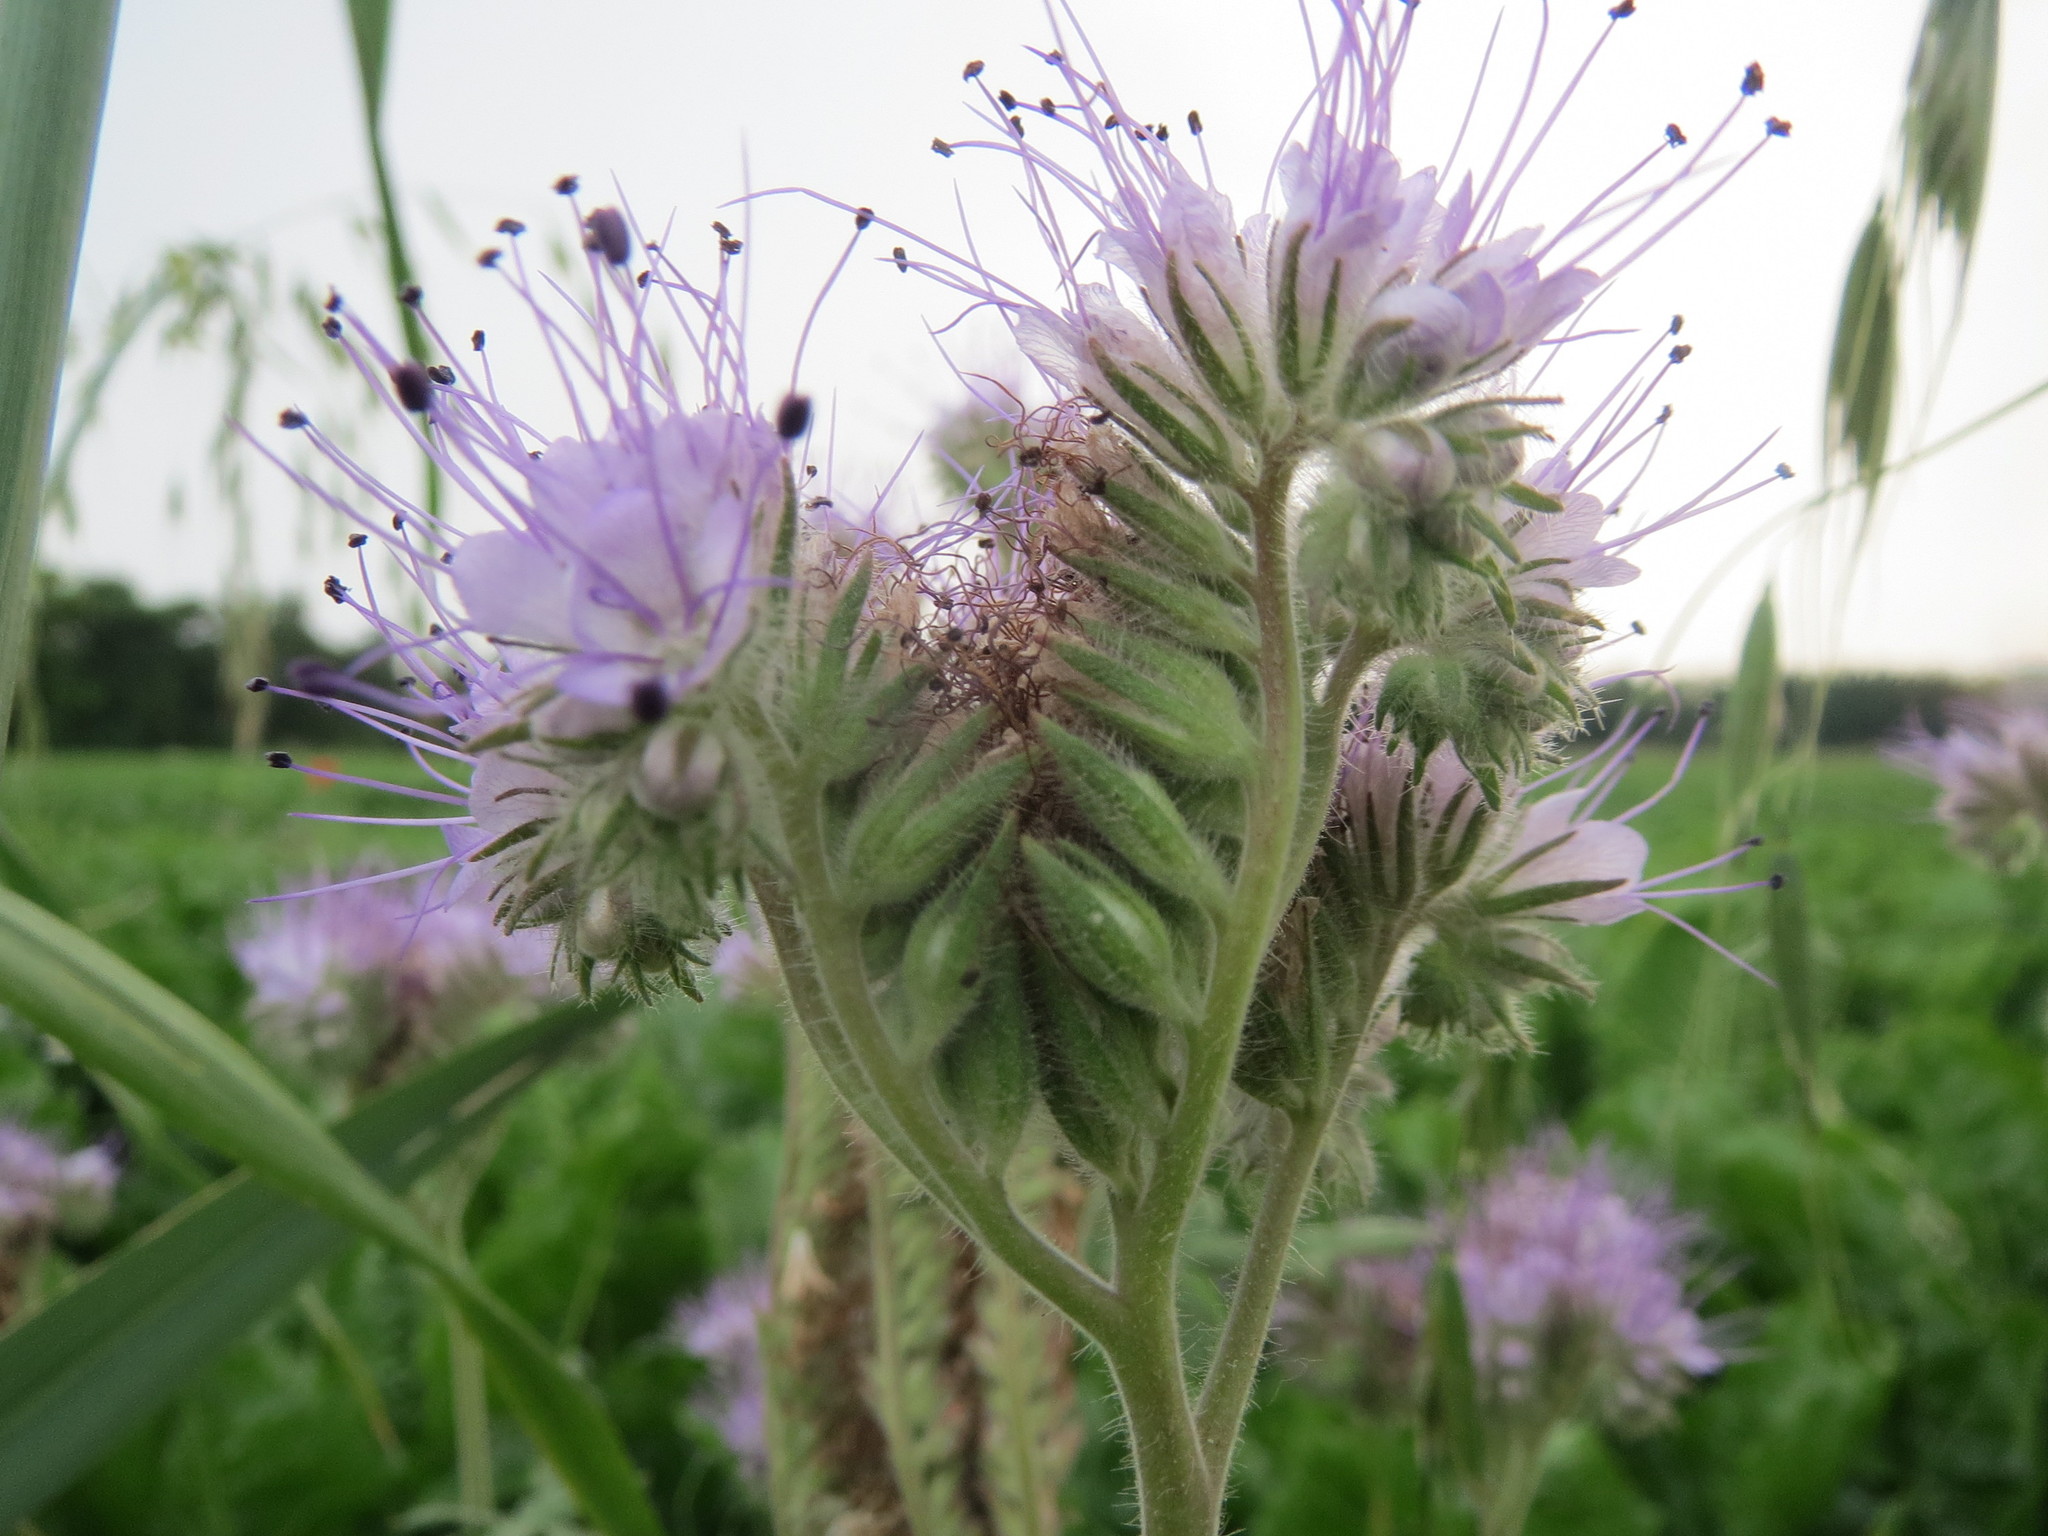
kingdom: Plantae
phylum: Tracheophyta
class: Magnoliopsida
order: Boraginales
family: Hydrophyllaceae
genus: Phacelia
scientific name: Phacelia tanacetifolia
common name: Phacelia
